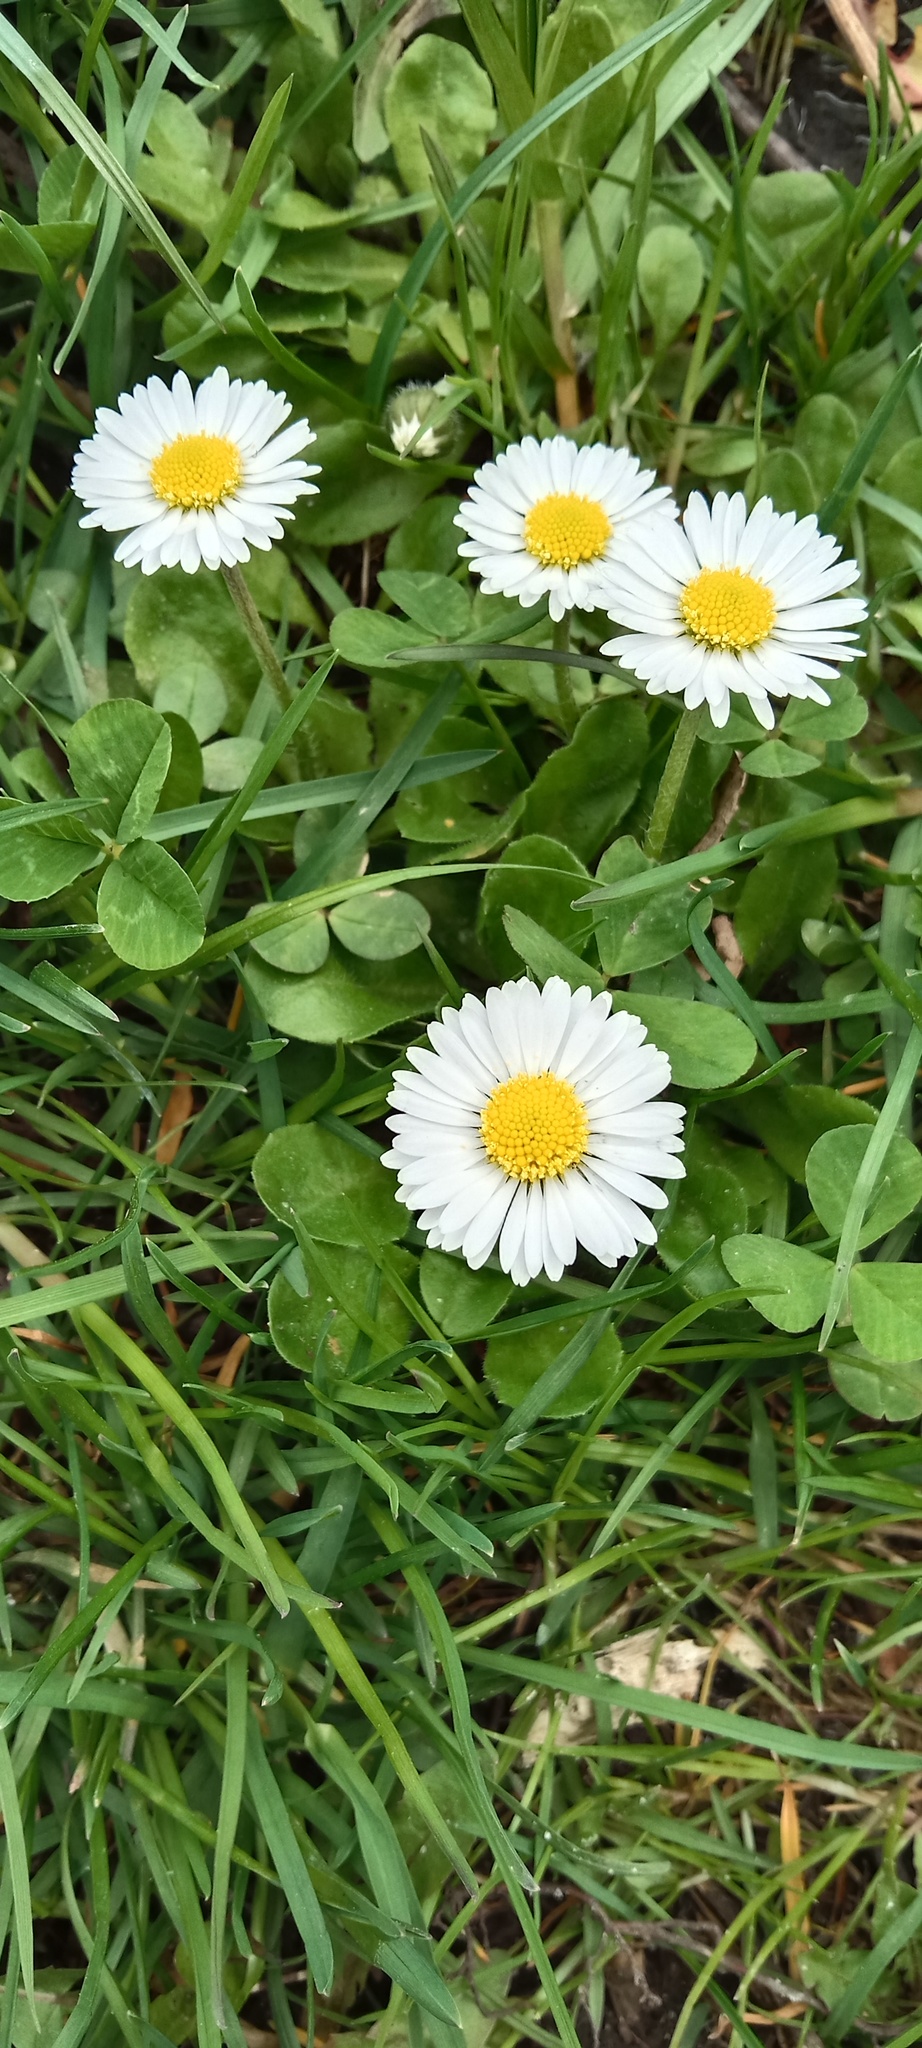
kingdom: Plantae
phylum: Tracheophyta
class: Magnoliopsida
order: Asterales
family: Asteraceae
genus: Bellis
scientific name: Bellis perennis
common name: Lawndaisy
